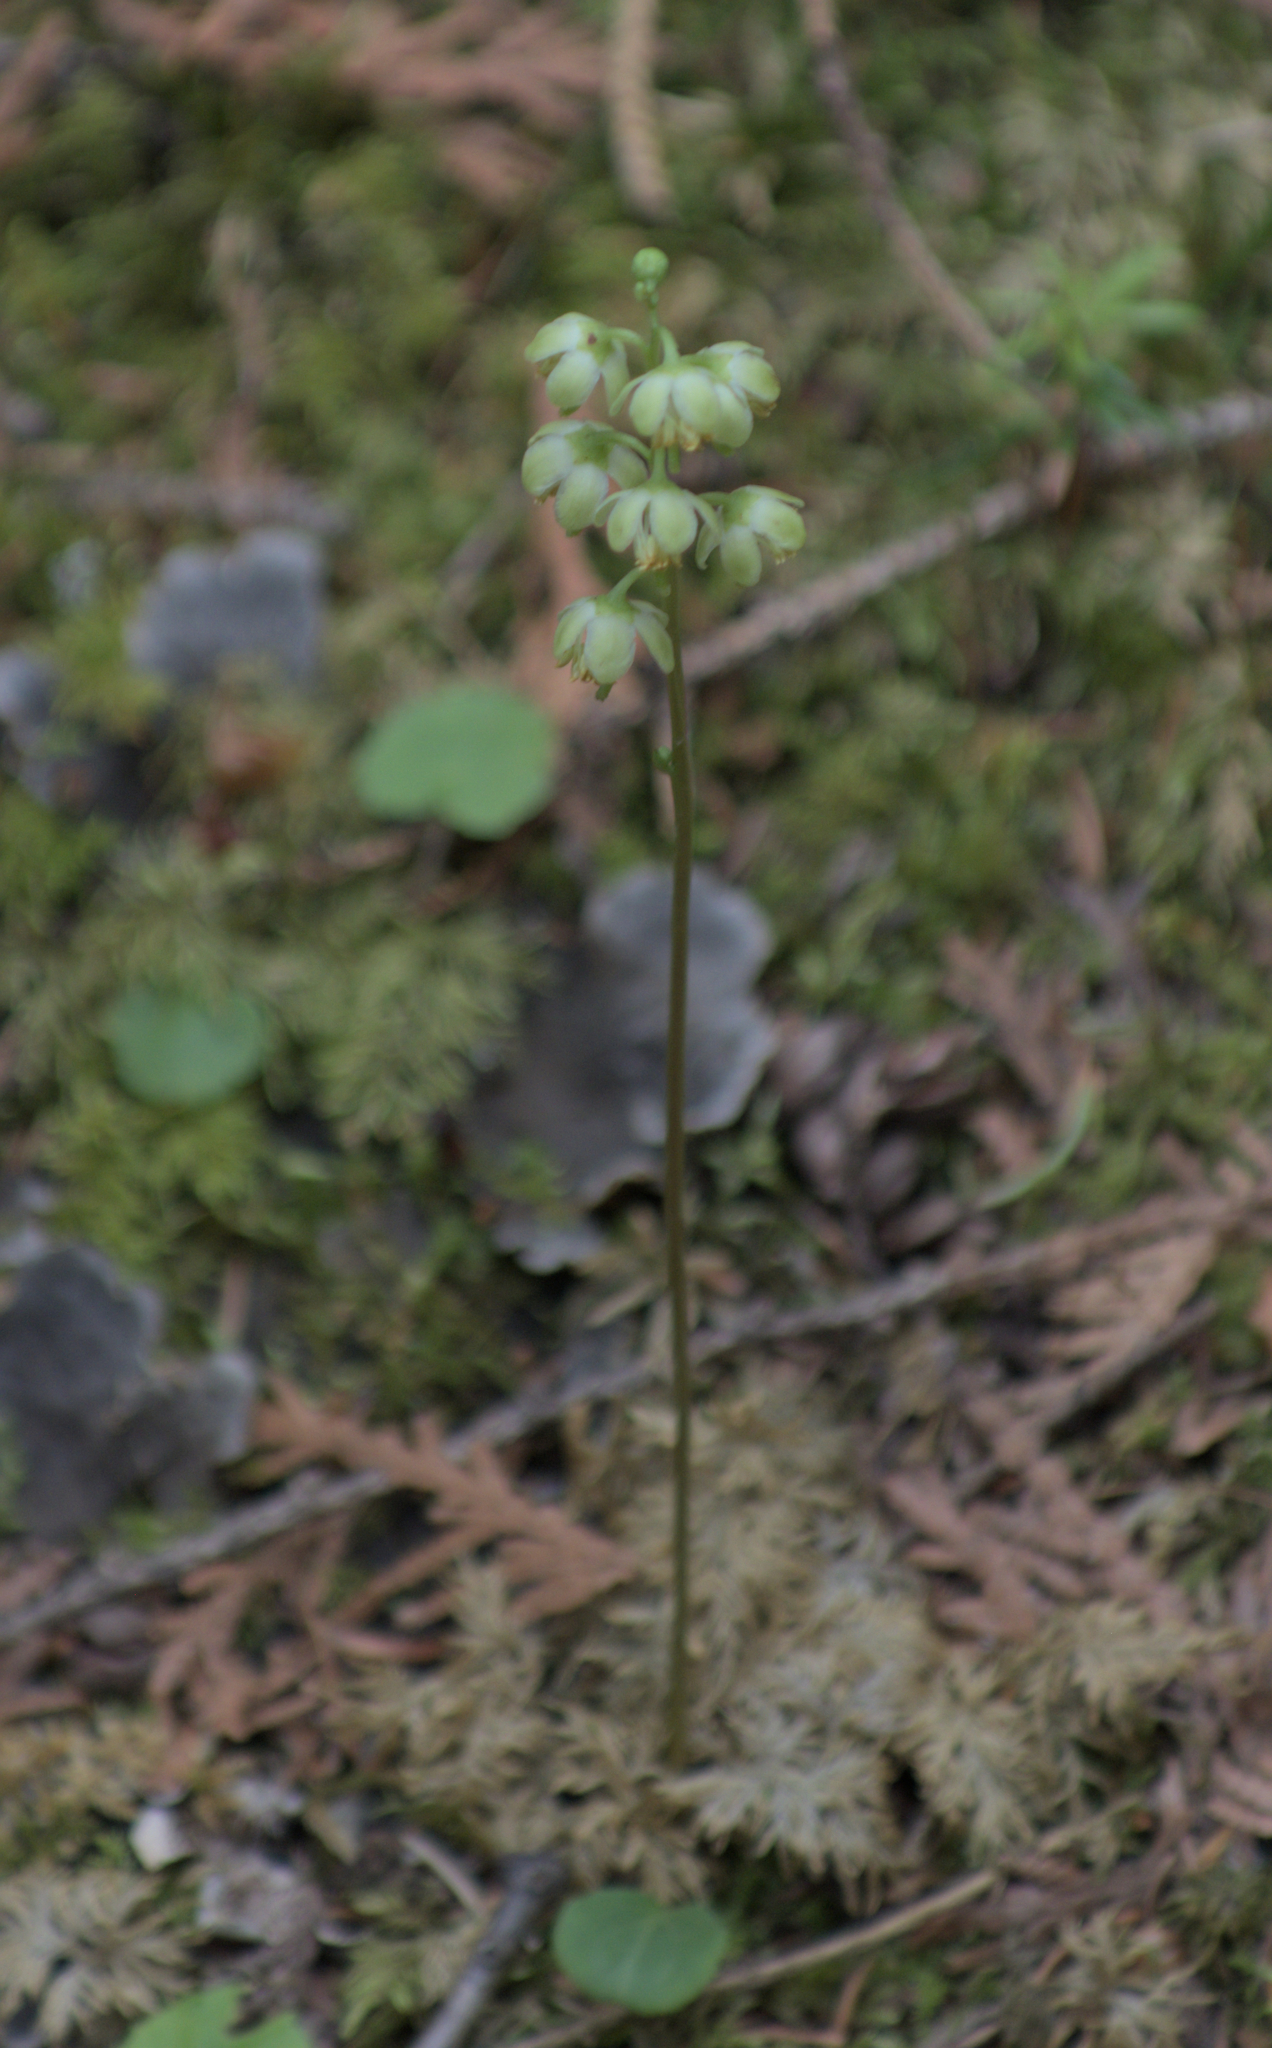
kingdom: Plantae
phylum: Tracheophyta
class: Magnoliopsida
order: Ericales
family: Ericaceae
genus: Pyrola
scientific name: Pyrola chlorantha
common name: Green wintergreen
